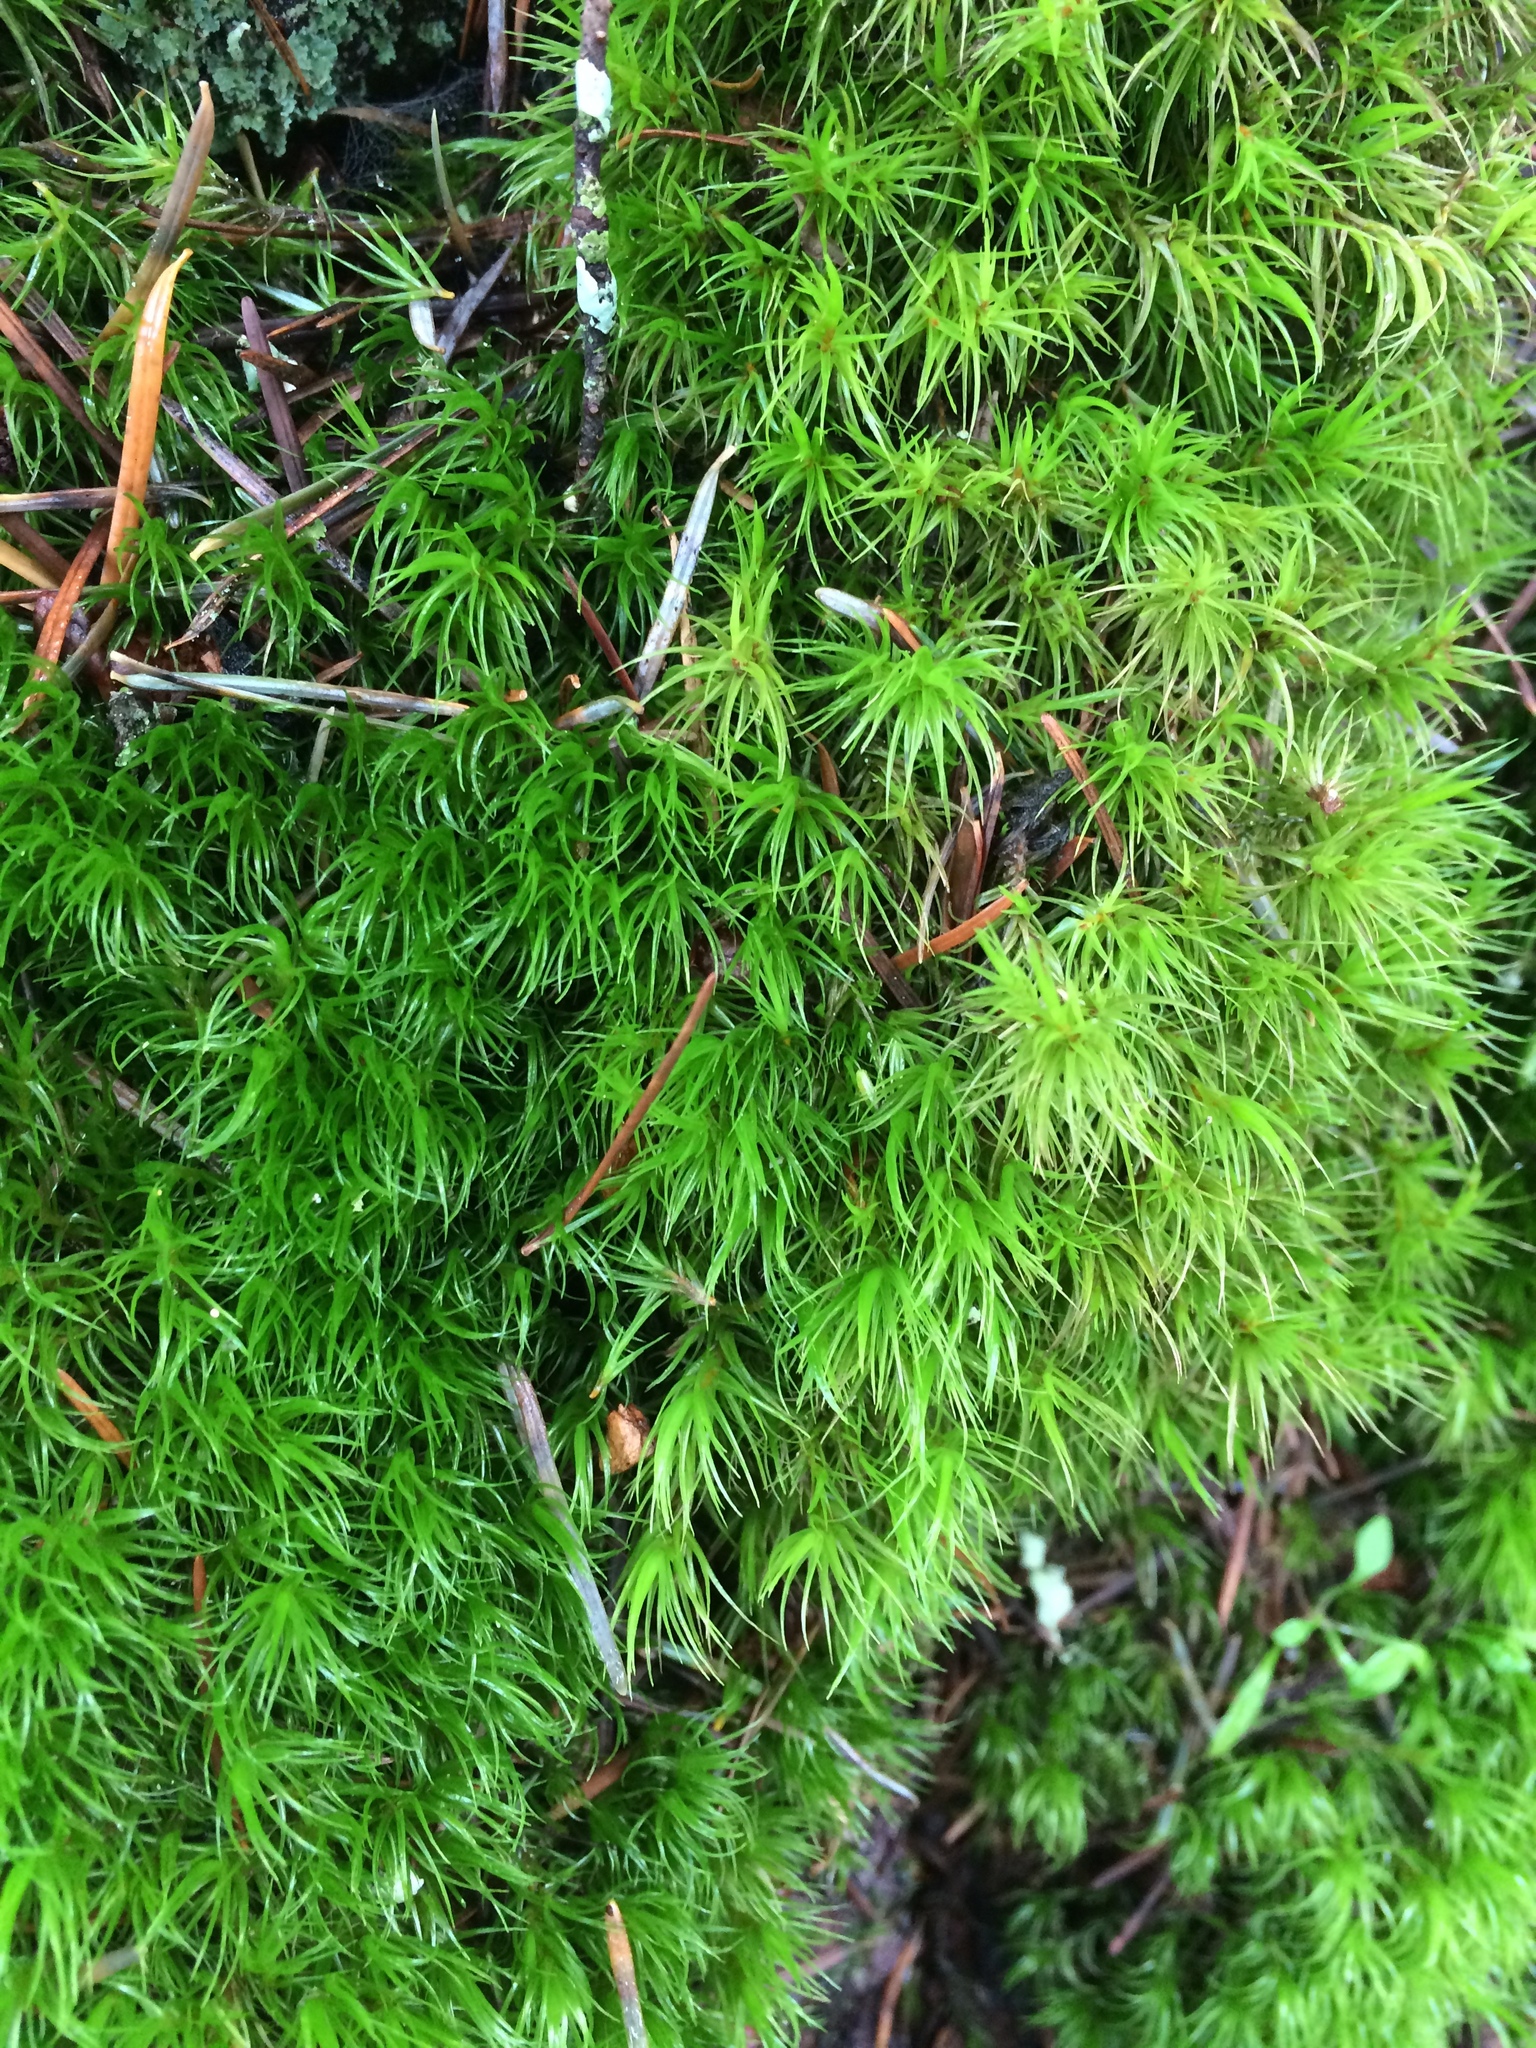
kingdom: Plantae
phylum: Bryophyta
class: Bryopsida
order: Dicranales
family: Dicranaceae
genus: Dicranum
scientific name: Dicranum scoparium
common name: Broom fork-moss
